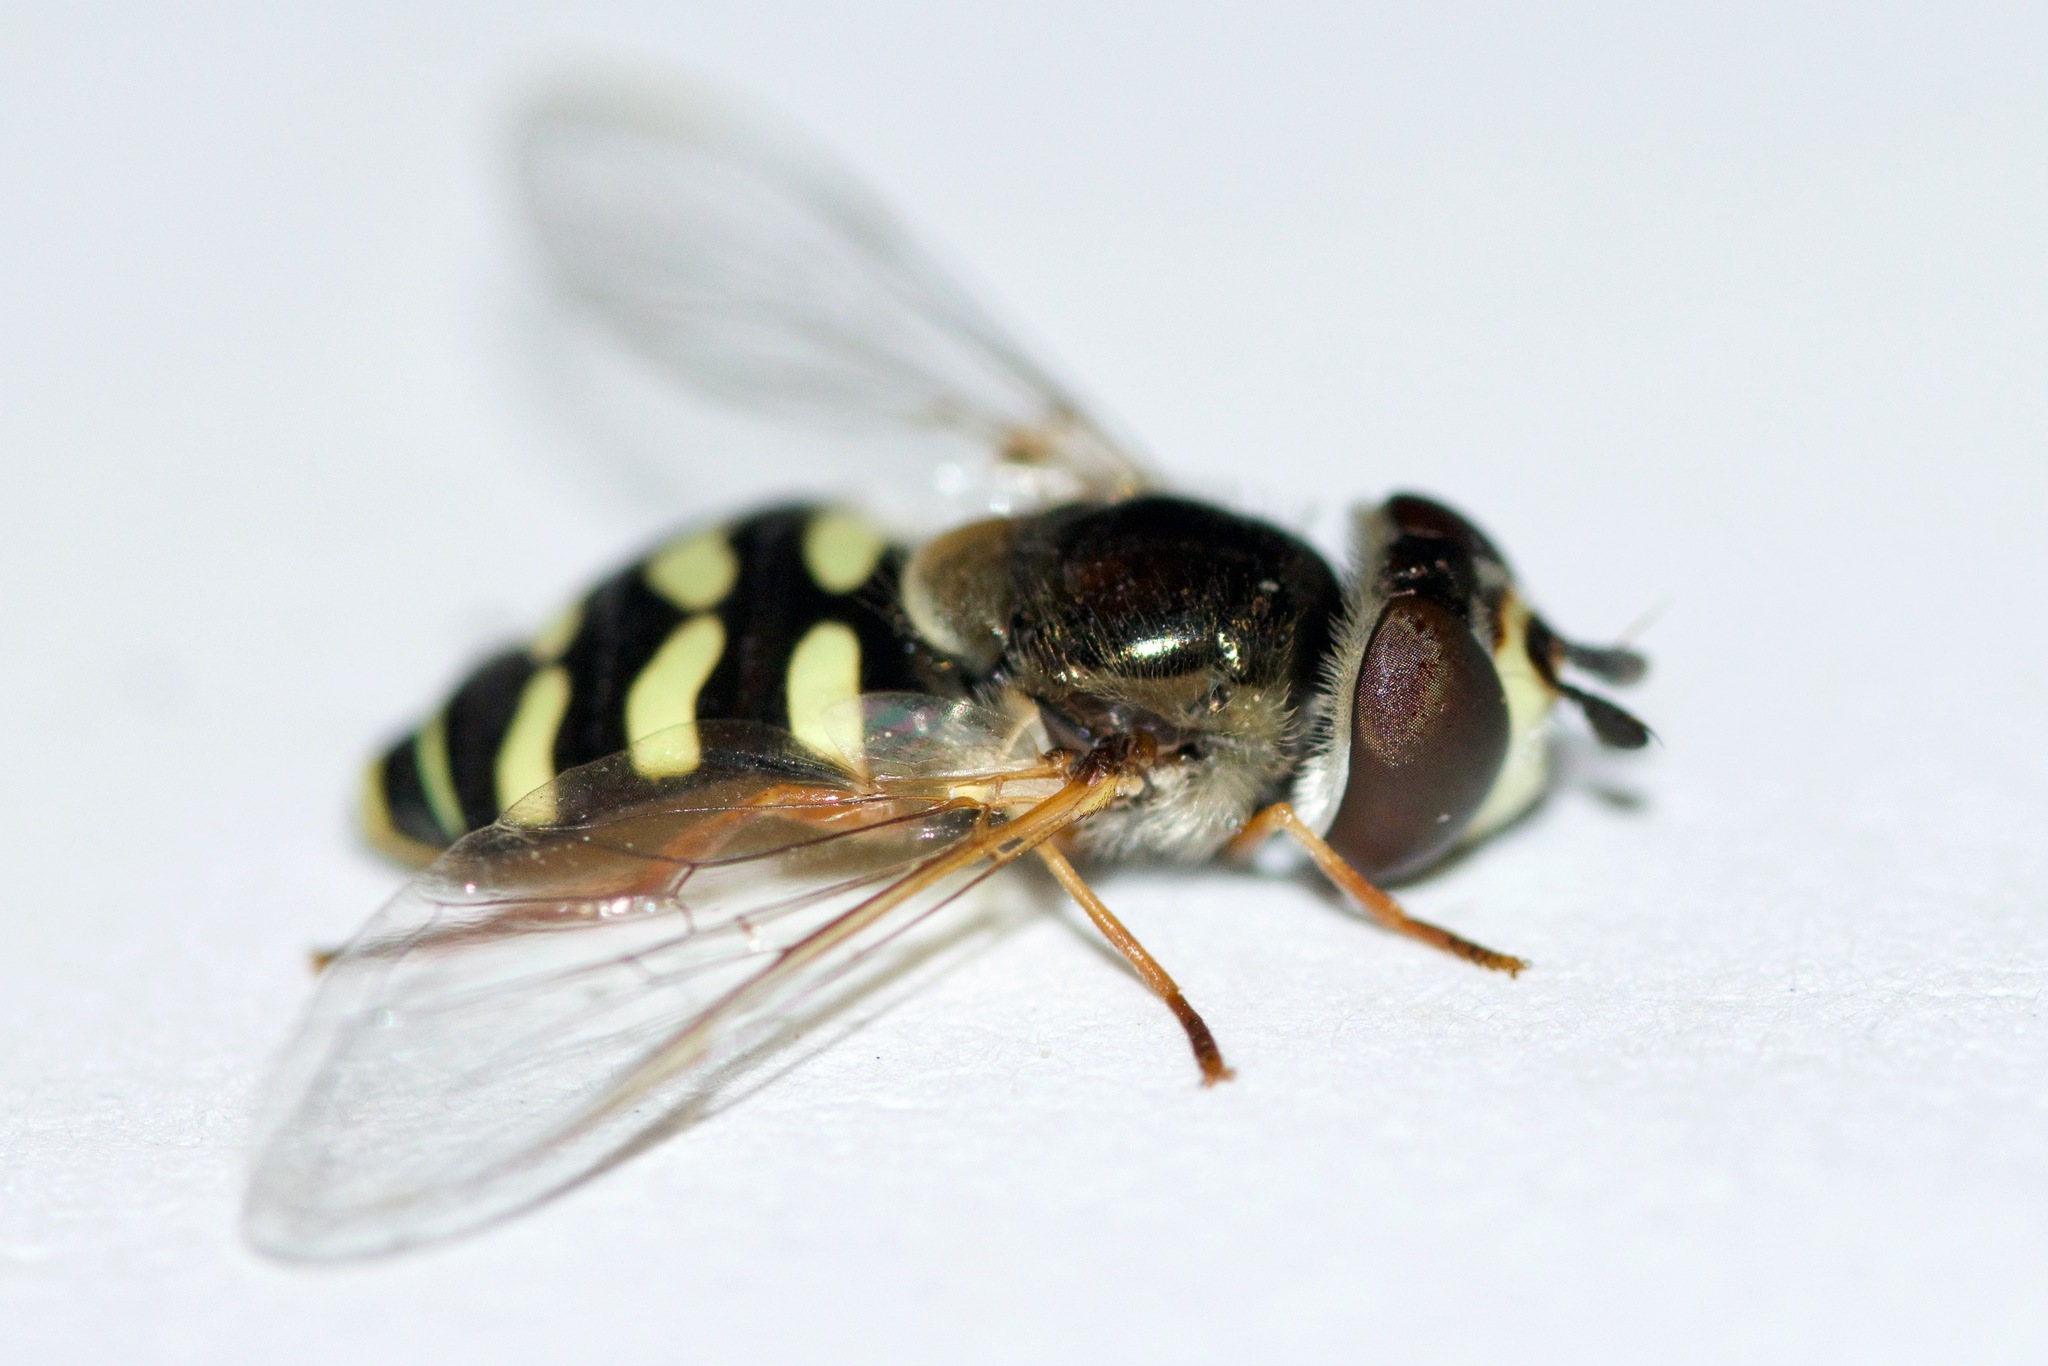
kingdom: Animalia
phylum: Arthropoda
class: Insecta
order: Diptera
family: Syrphidae
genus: Eupeodes
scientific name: Eupeodes volucris
